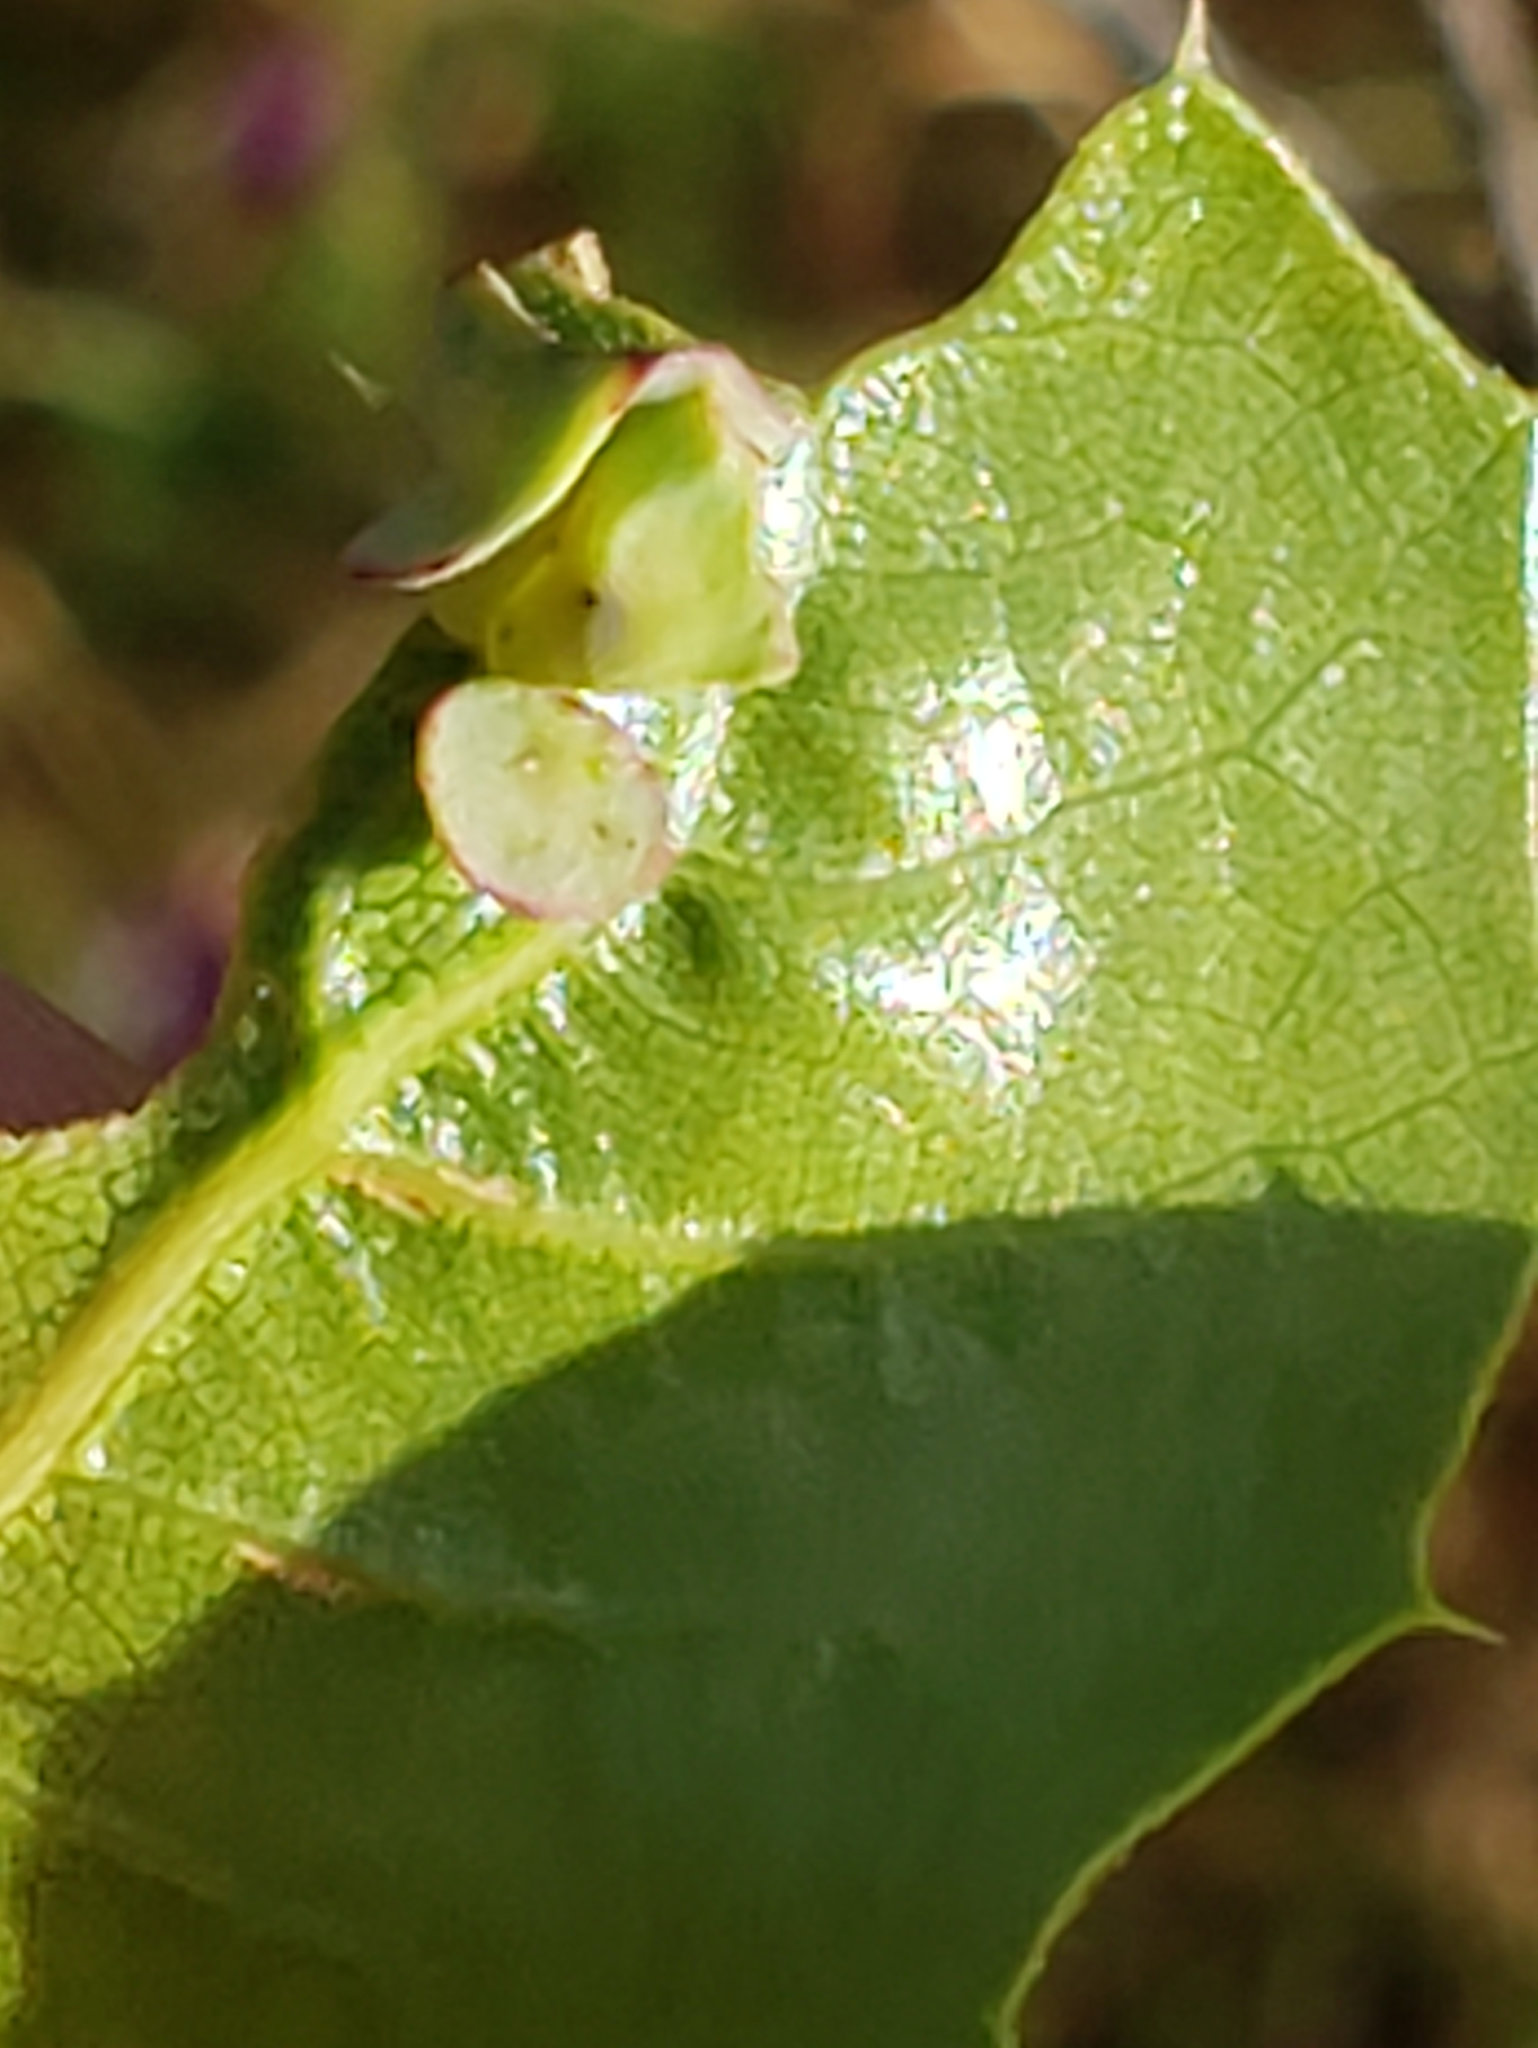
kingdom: Animalia
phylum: Arthropoda
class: Insecta
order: Hymenoptera
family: Cynipidae
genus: Amphibolips
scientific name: Amphibolips quercuspomiformis
